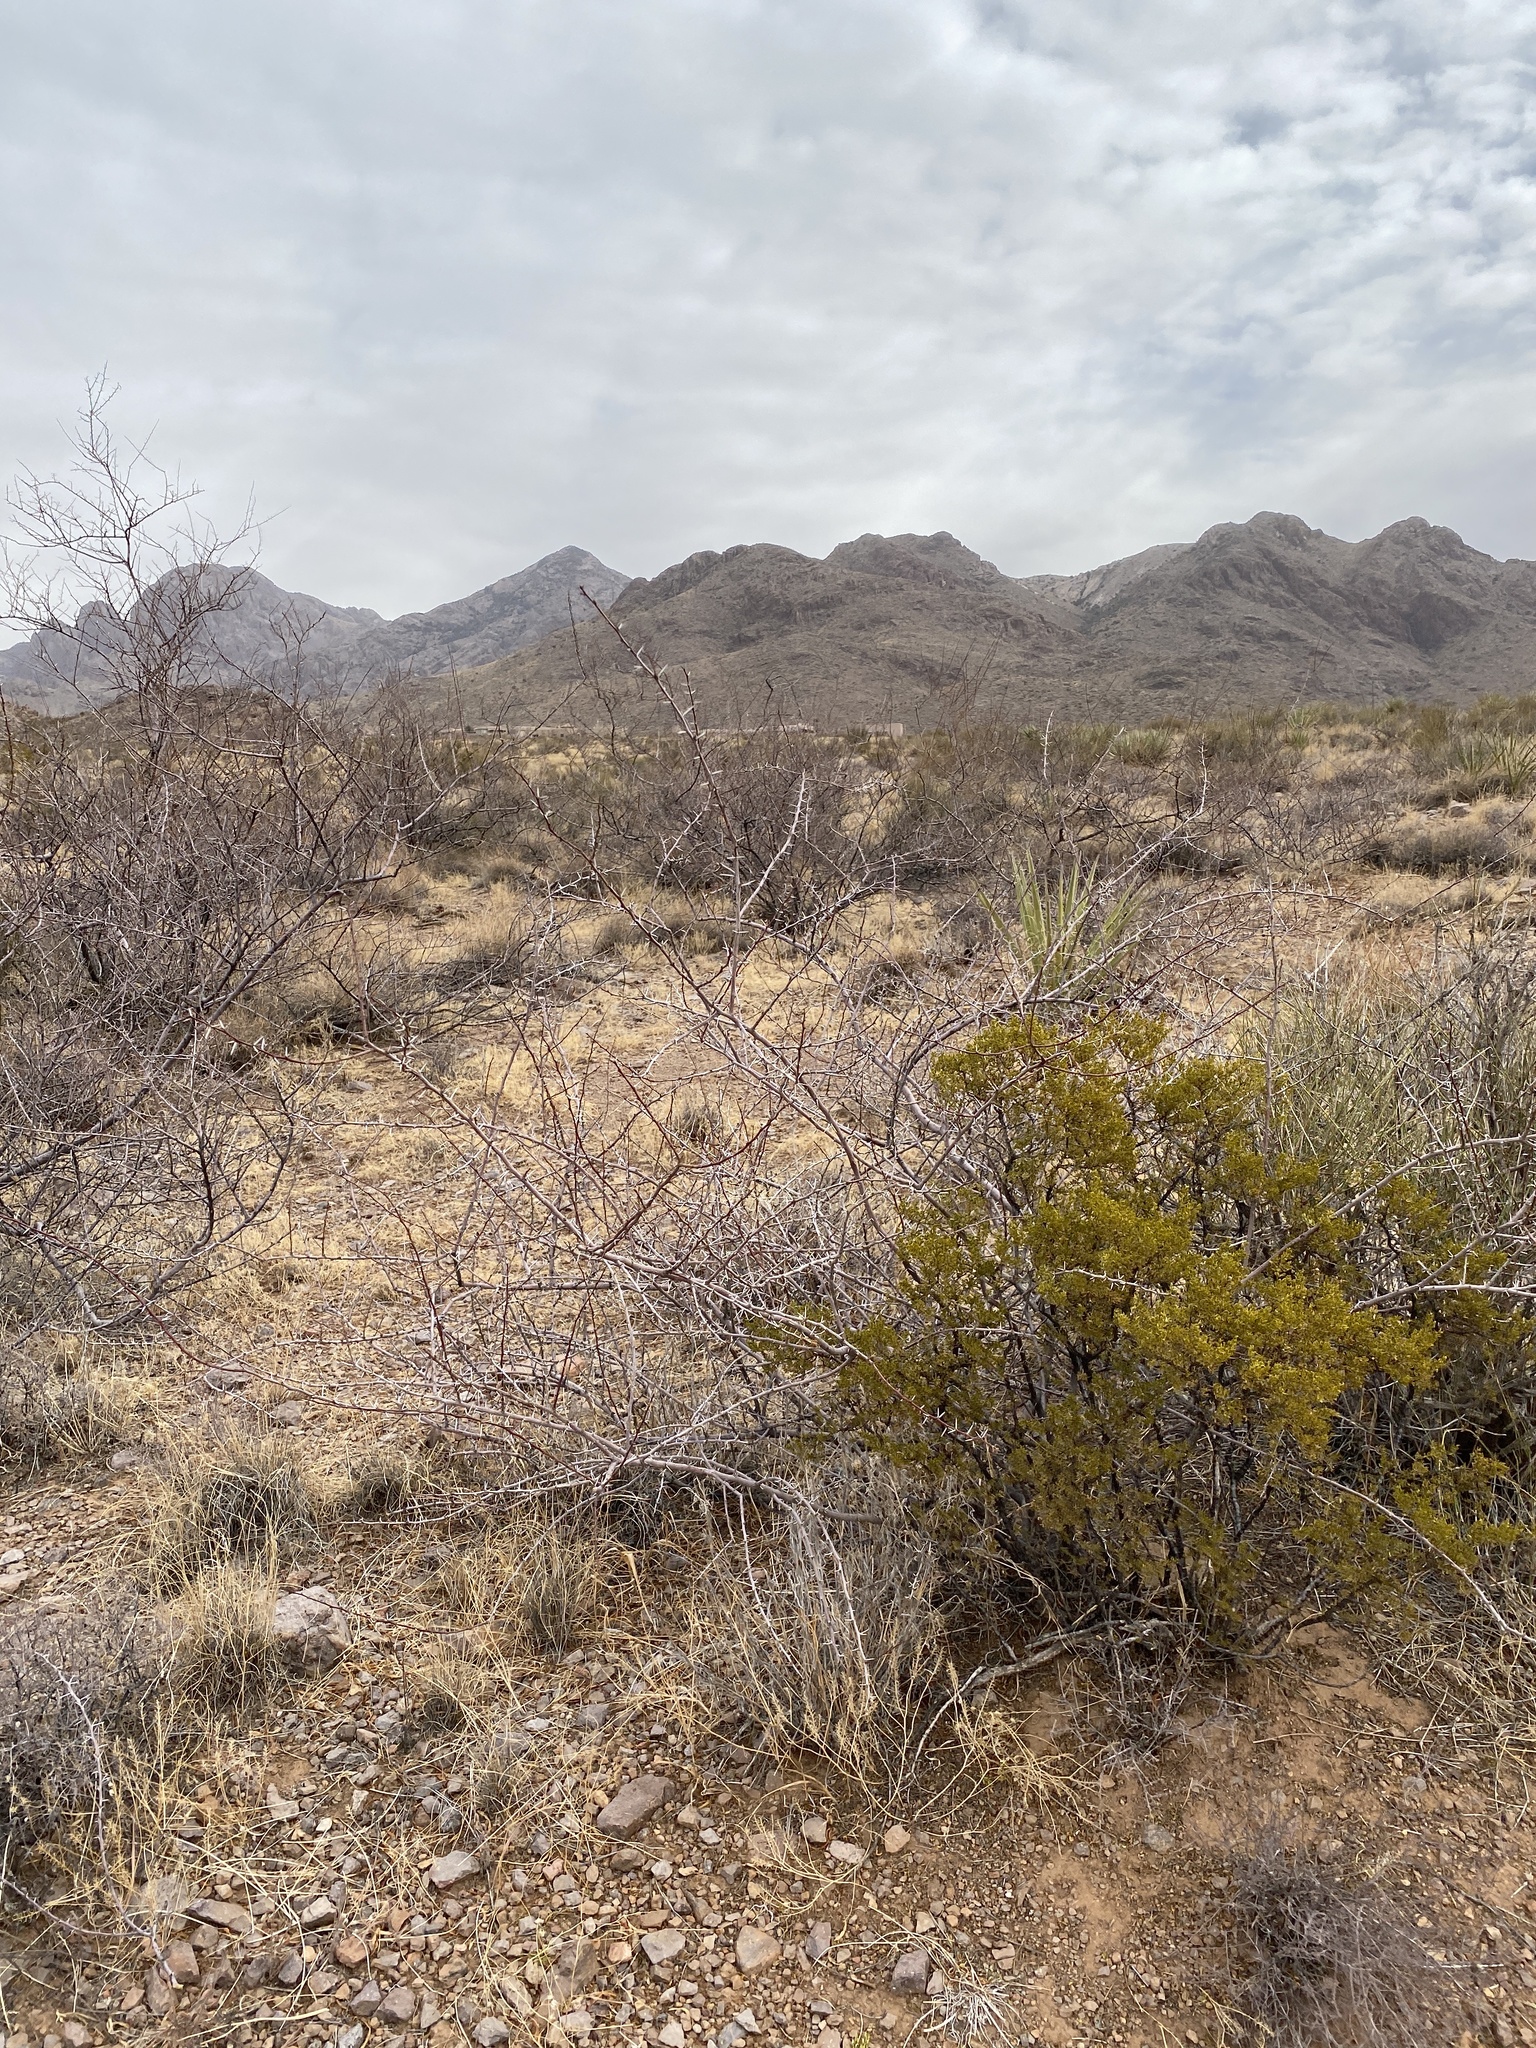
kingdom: Plantae
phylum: Tracheophyta
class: Magnoliopsida
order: Fabales
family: Fabaceae
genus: Vachellia
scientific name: Vachellia constricta
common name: Mescat acacia
